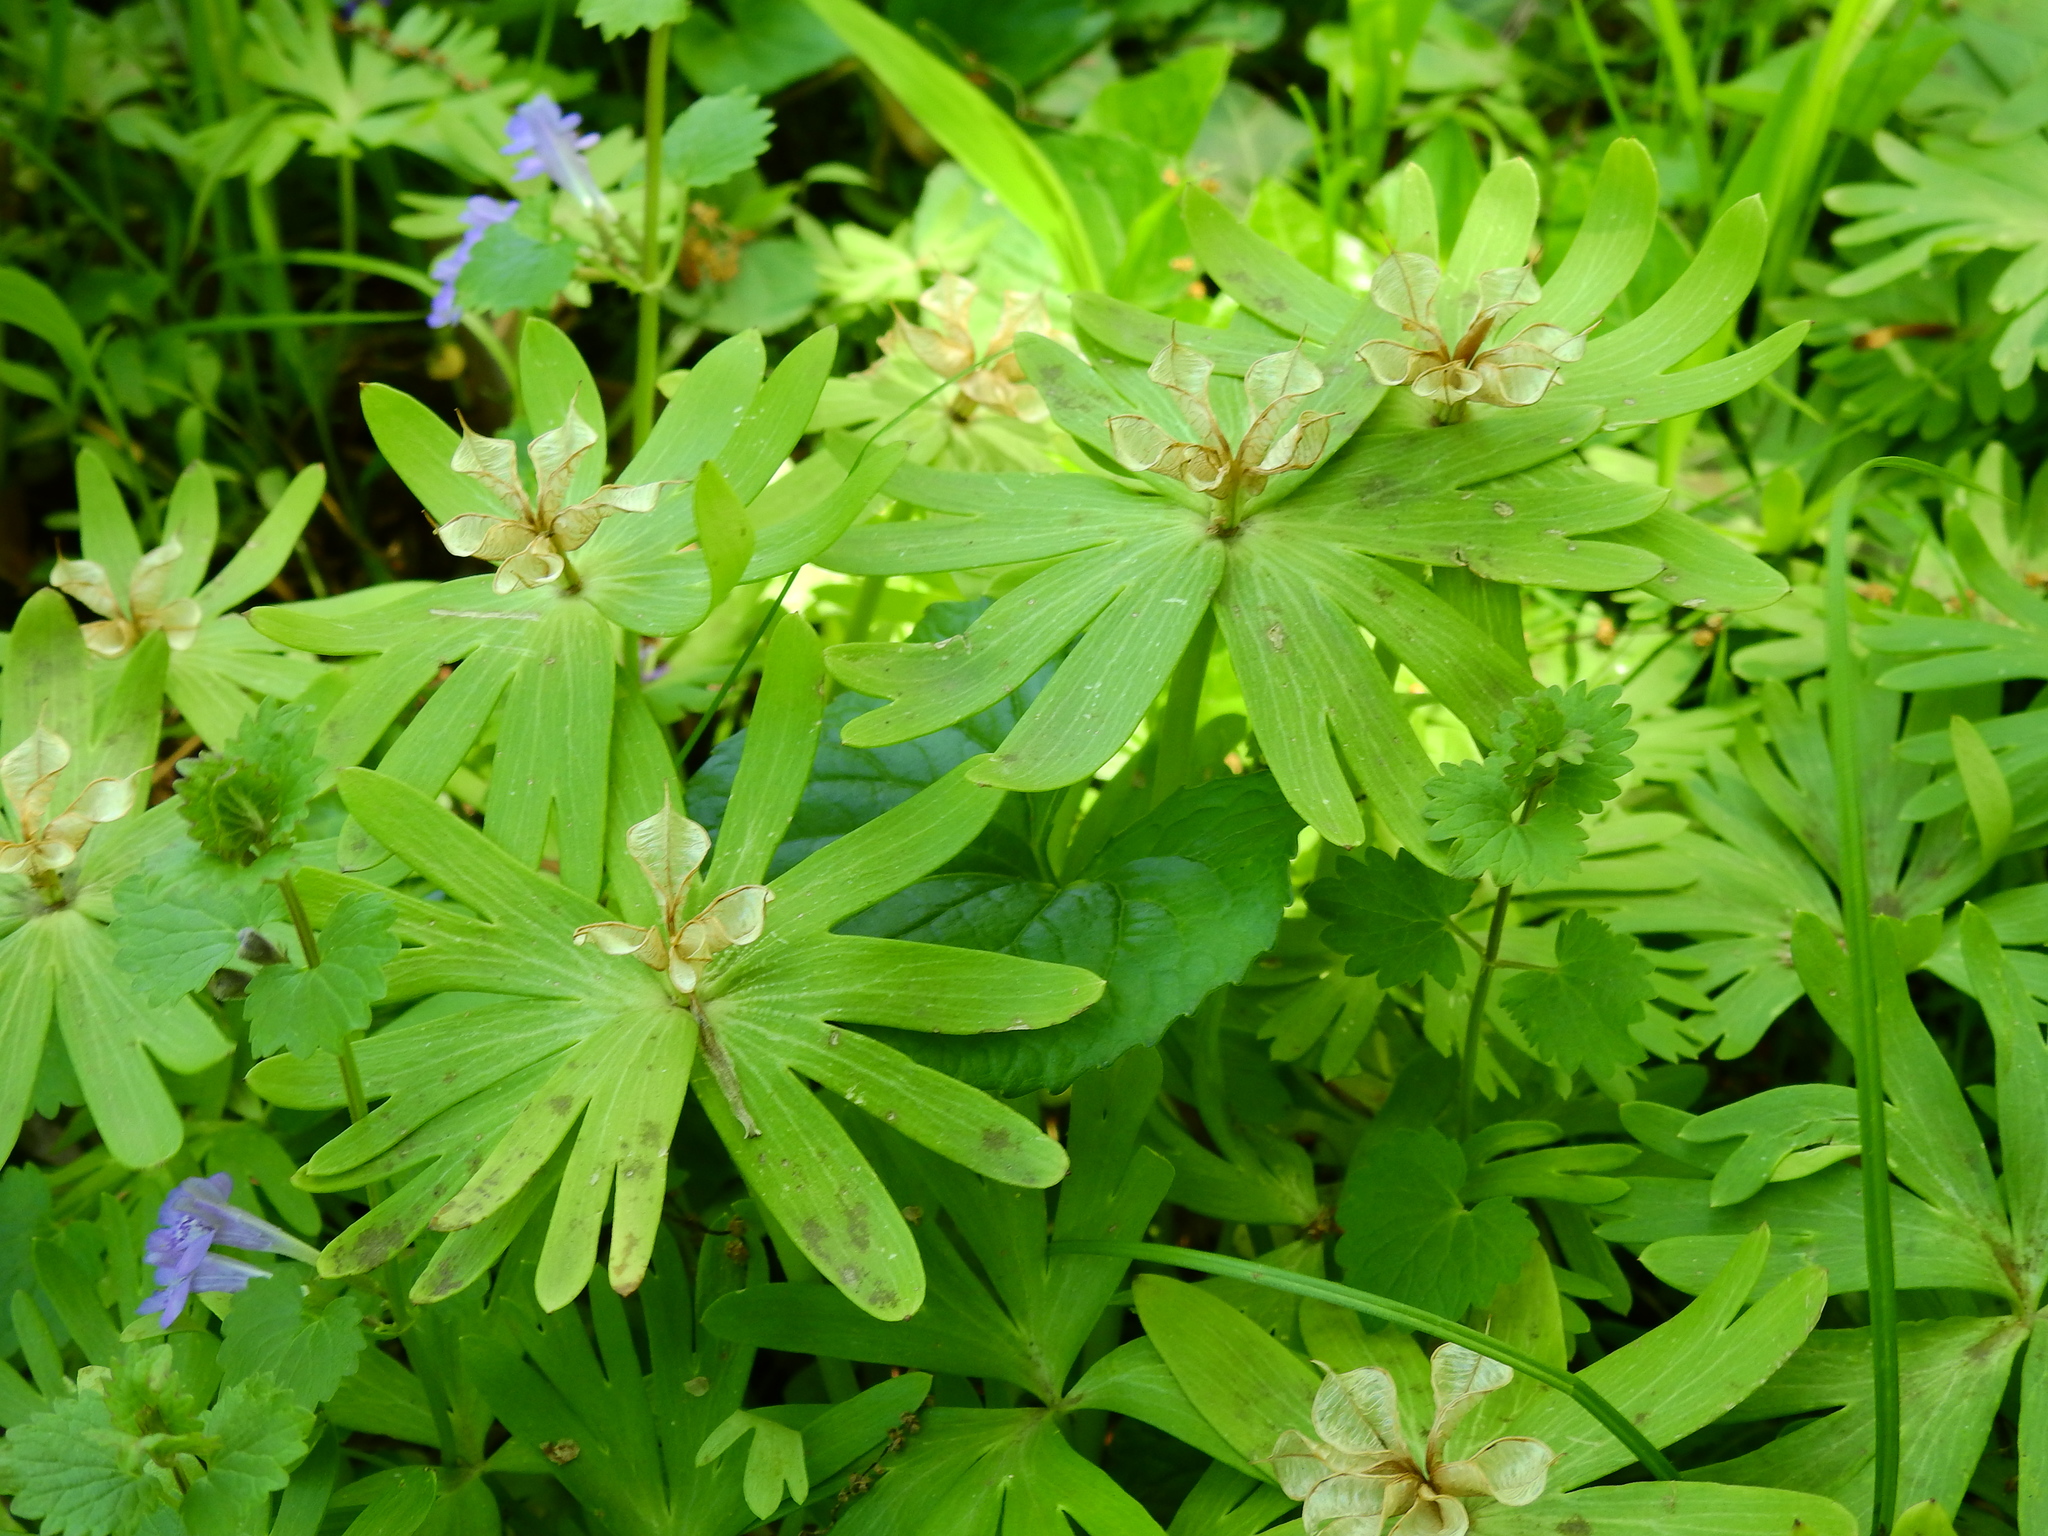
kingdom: Plantae
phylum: Tracheophyta
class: Magnoliopsida
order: Ranunculales
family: Ranunculaceae
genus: Eranthis
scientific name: Eranthis hyemalis
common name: Winter aconite
